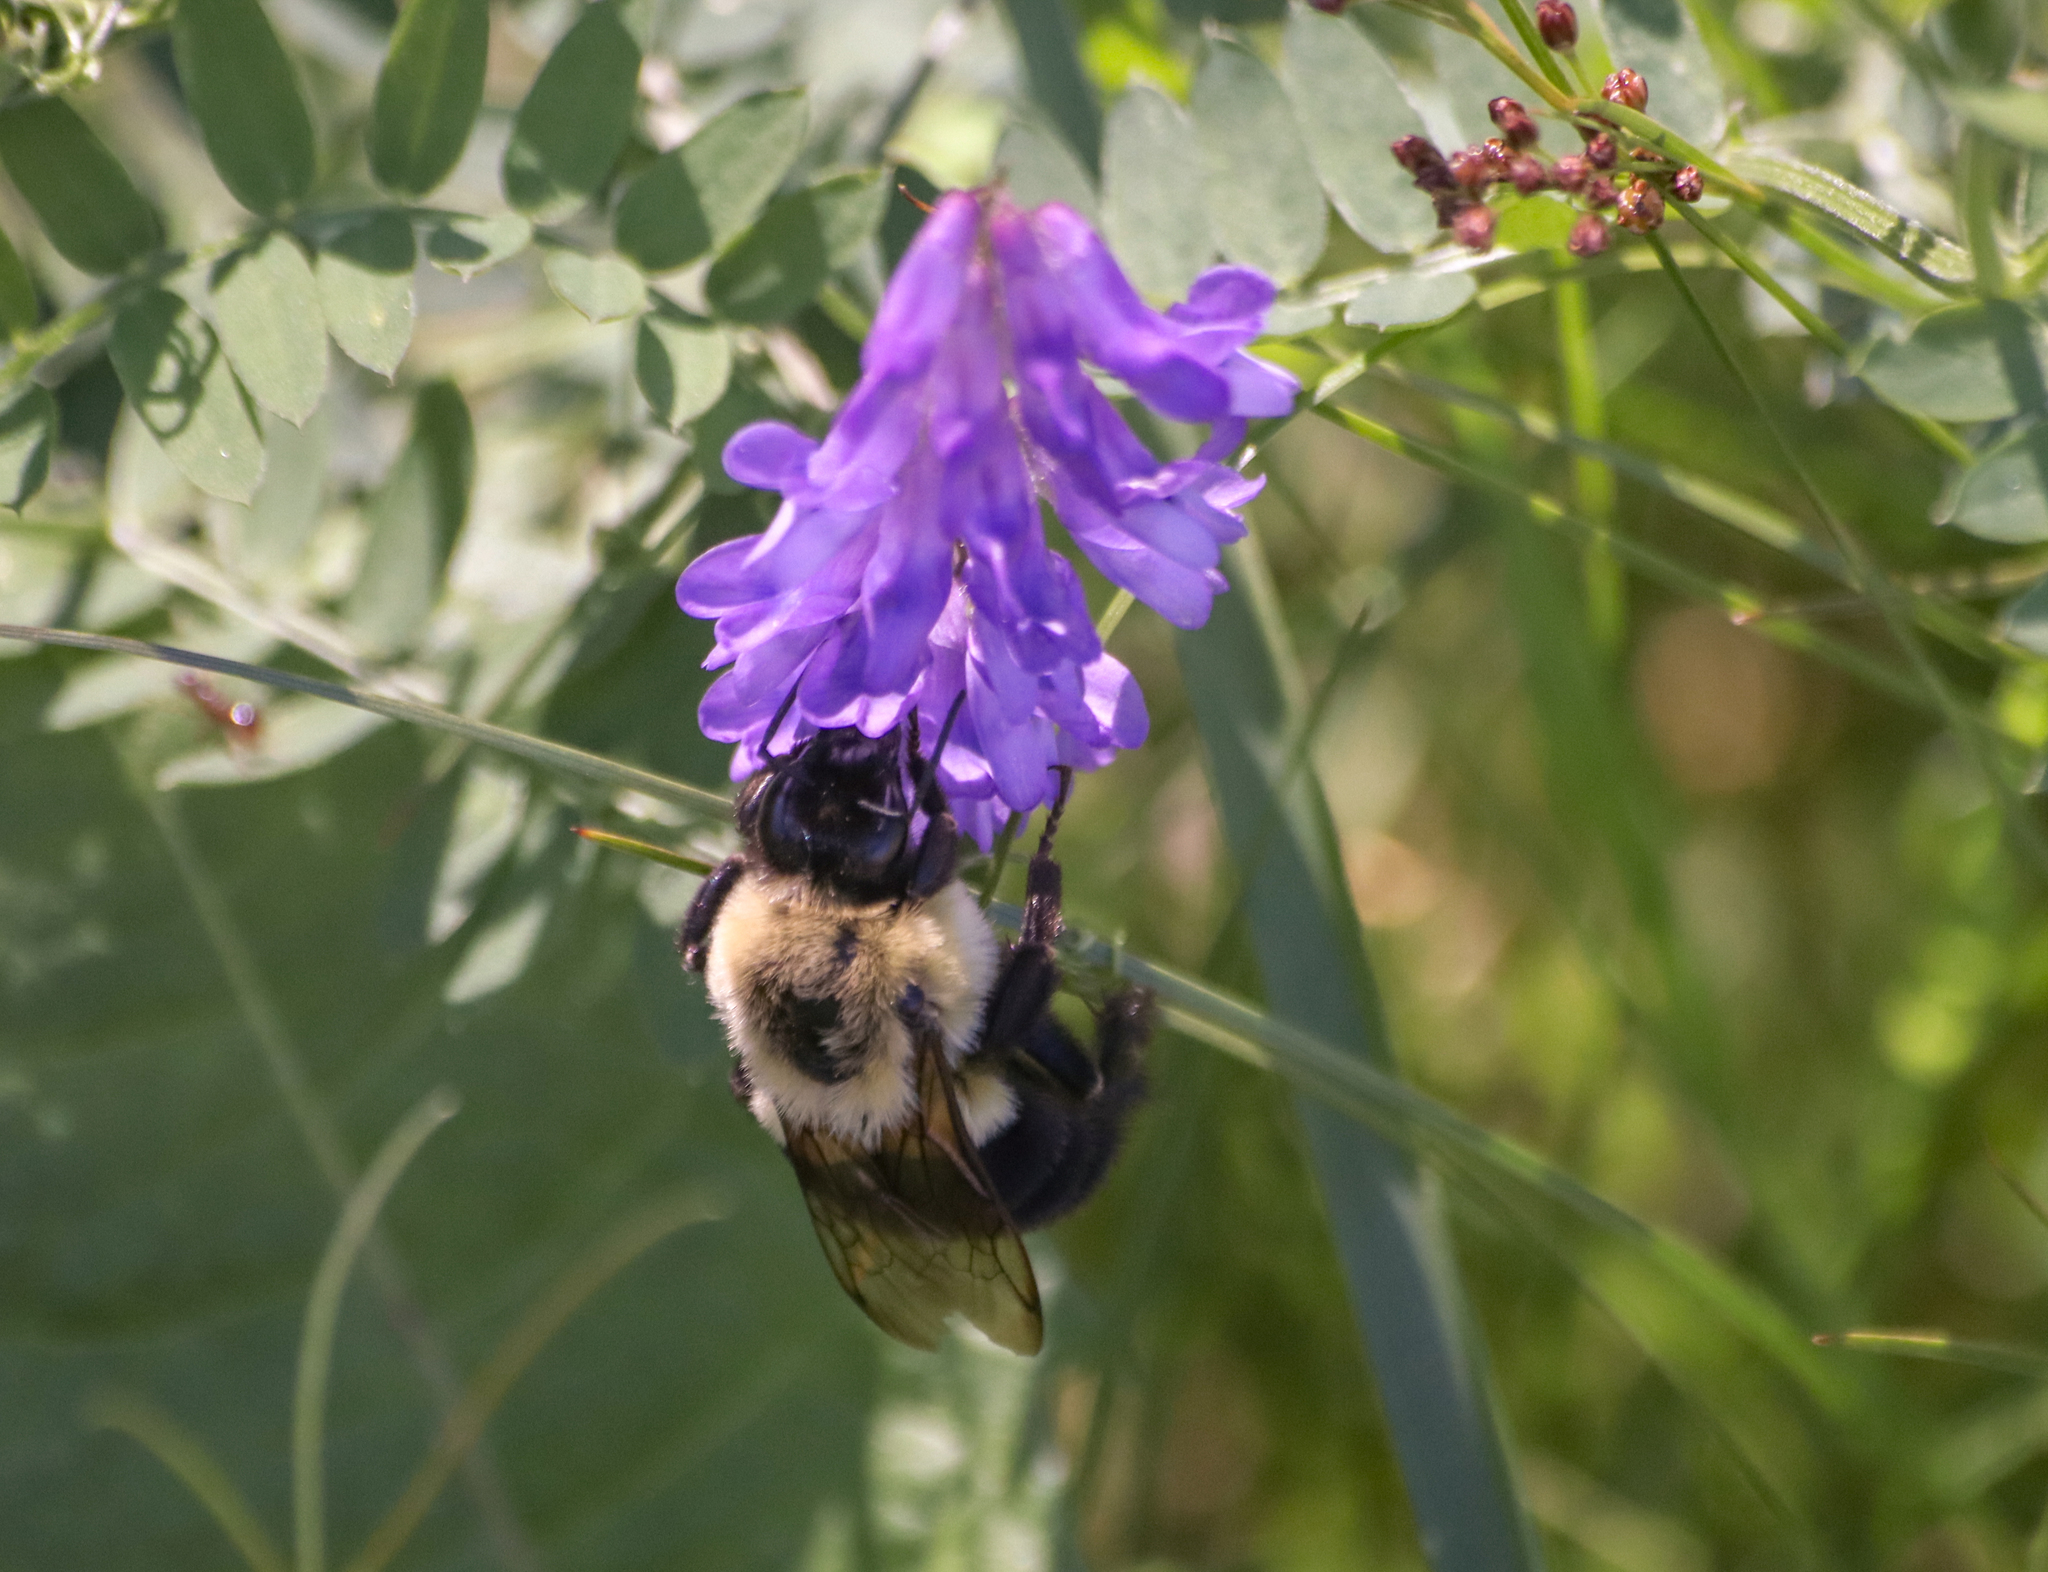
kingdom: Animalia
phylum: Arthropoda
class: Insecta
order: Hymenoptera
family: Apidae
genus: Bombus
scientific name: Bombus impatiens
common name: Common eastern bumble bee
